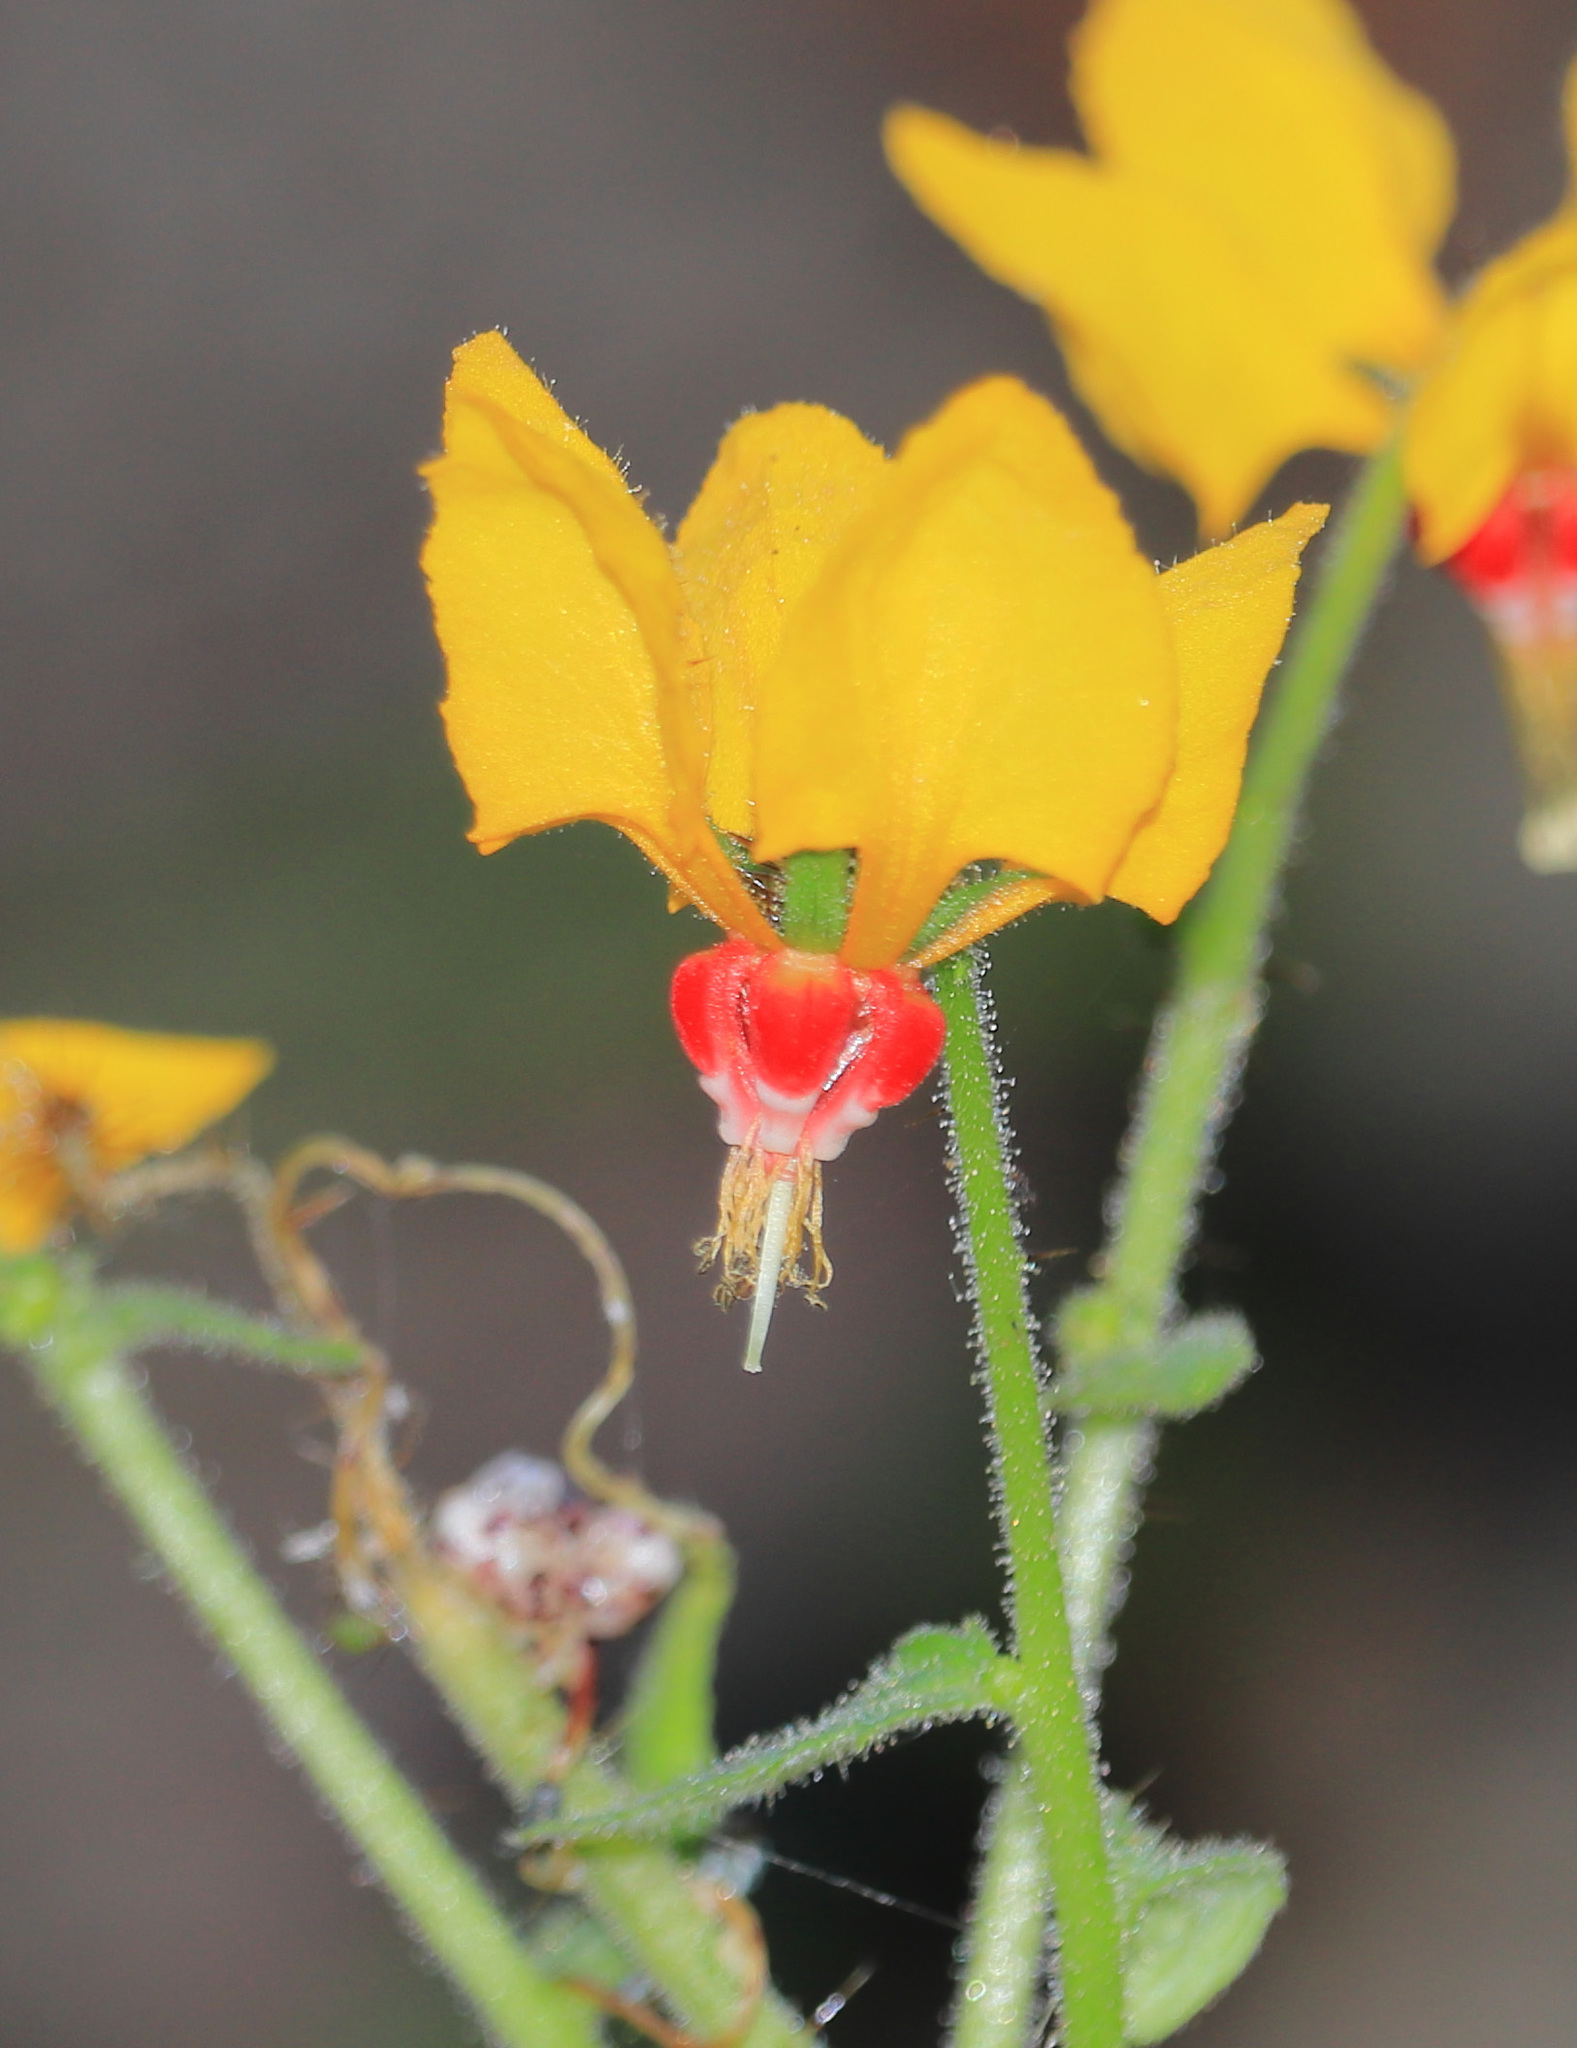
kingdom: Plantae
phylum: Tracheophyta
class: Magnoliopsida
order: Cornales
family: Loasaceae
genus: Nasa
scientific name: Nasa solaria
